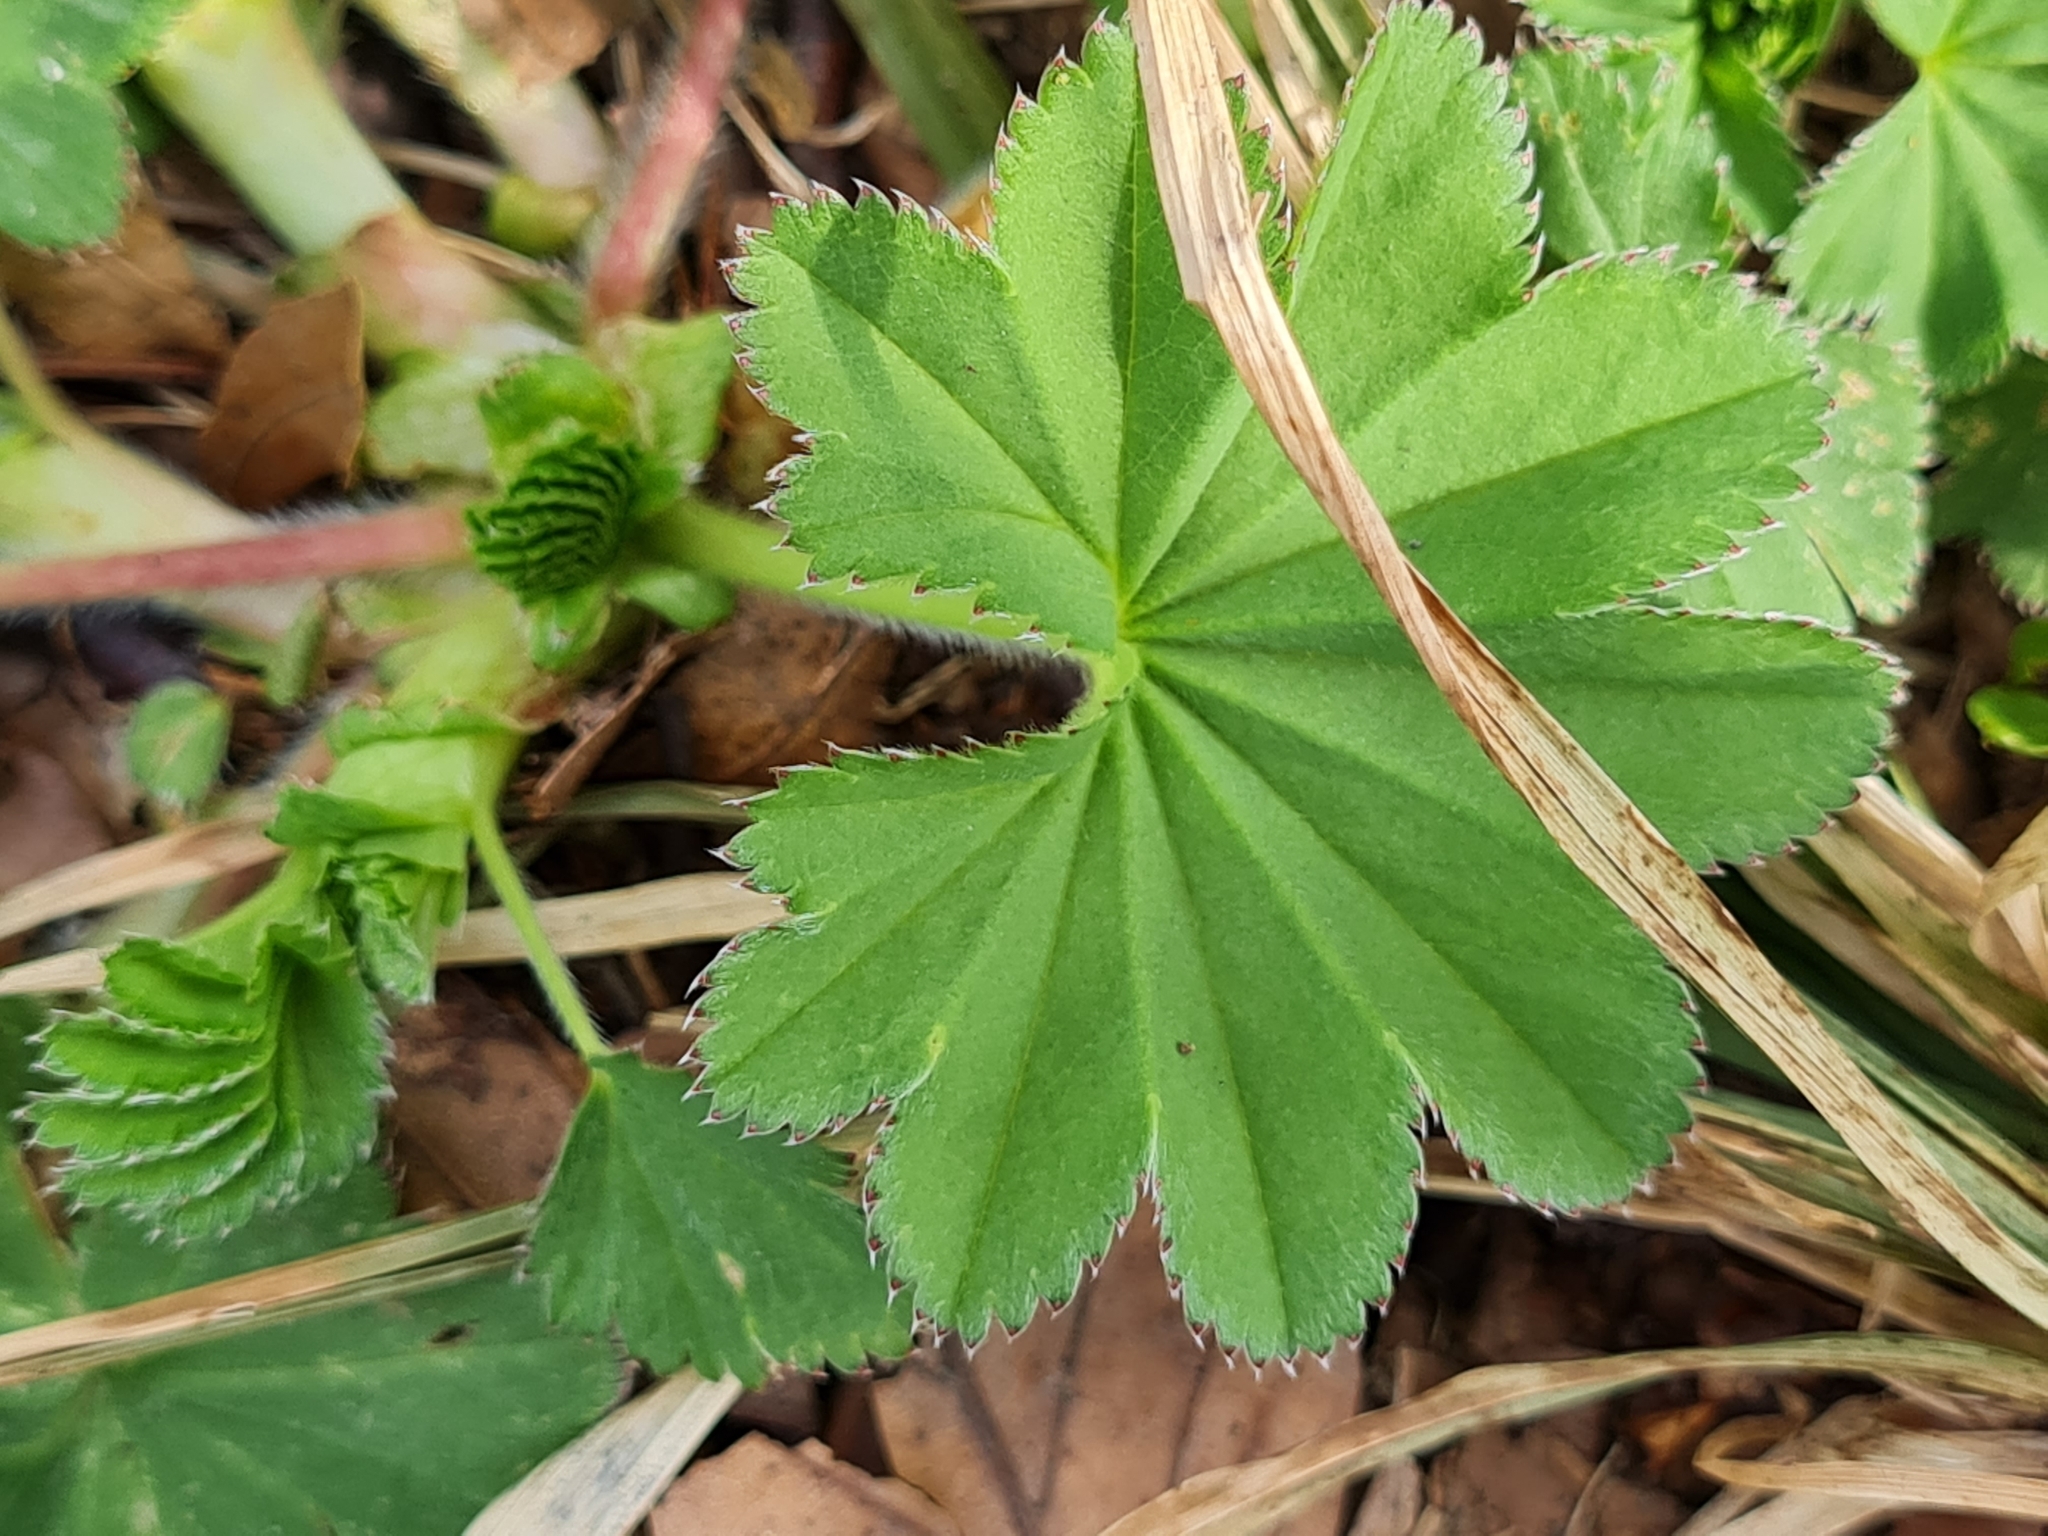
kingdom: Plantae
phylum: Tracheophyta
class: Magnoliopsida
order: Rosales
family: Rosaceae
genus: Alchemilla
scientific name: Alchemilla vulgaris
